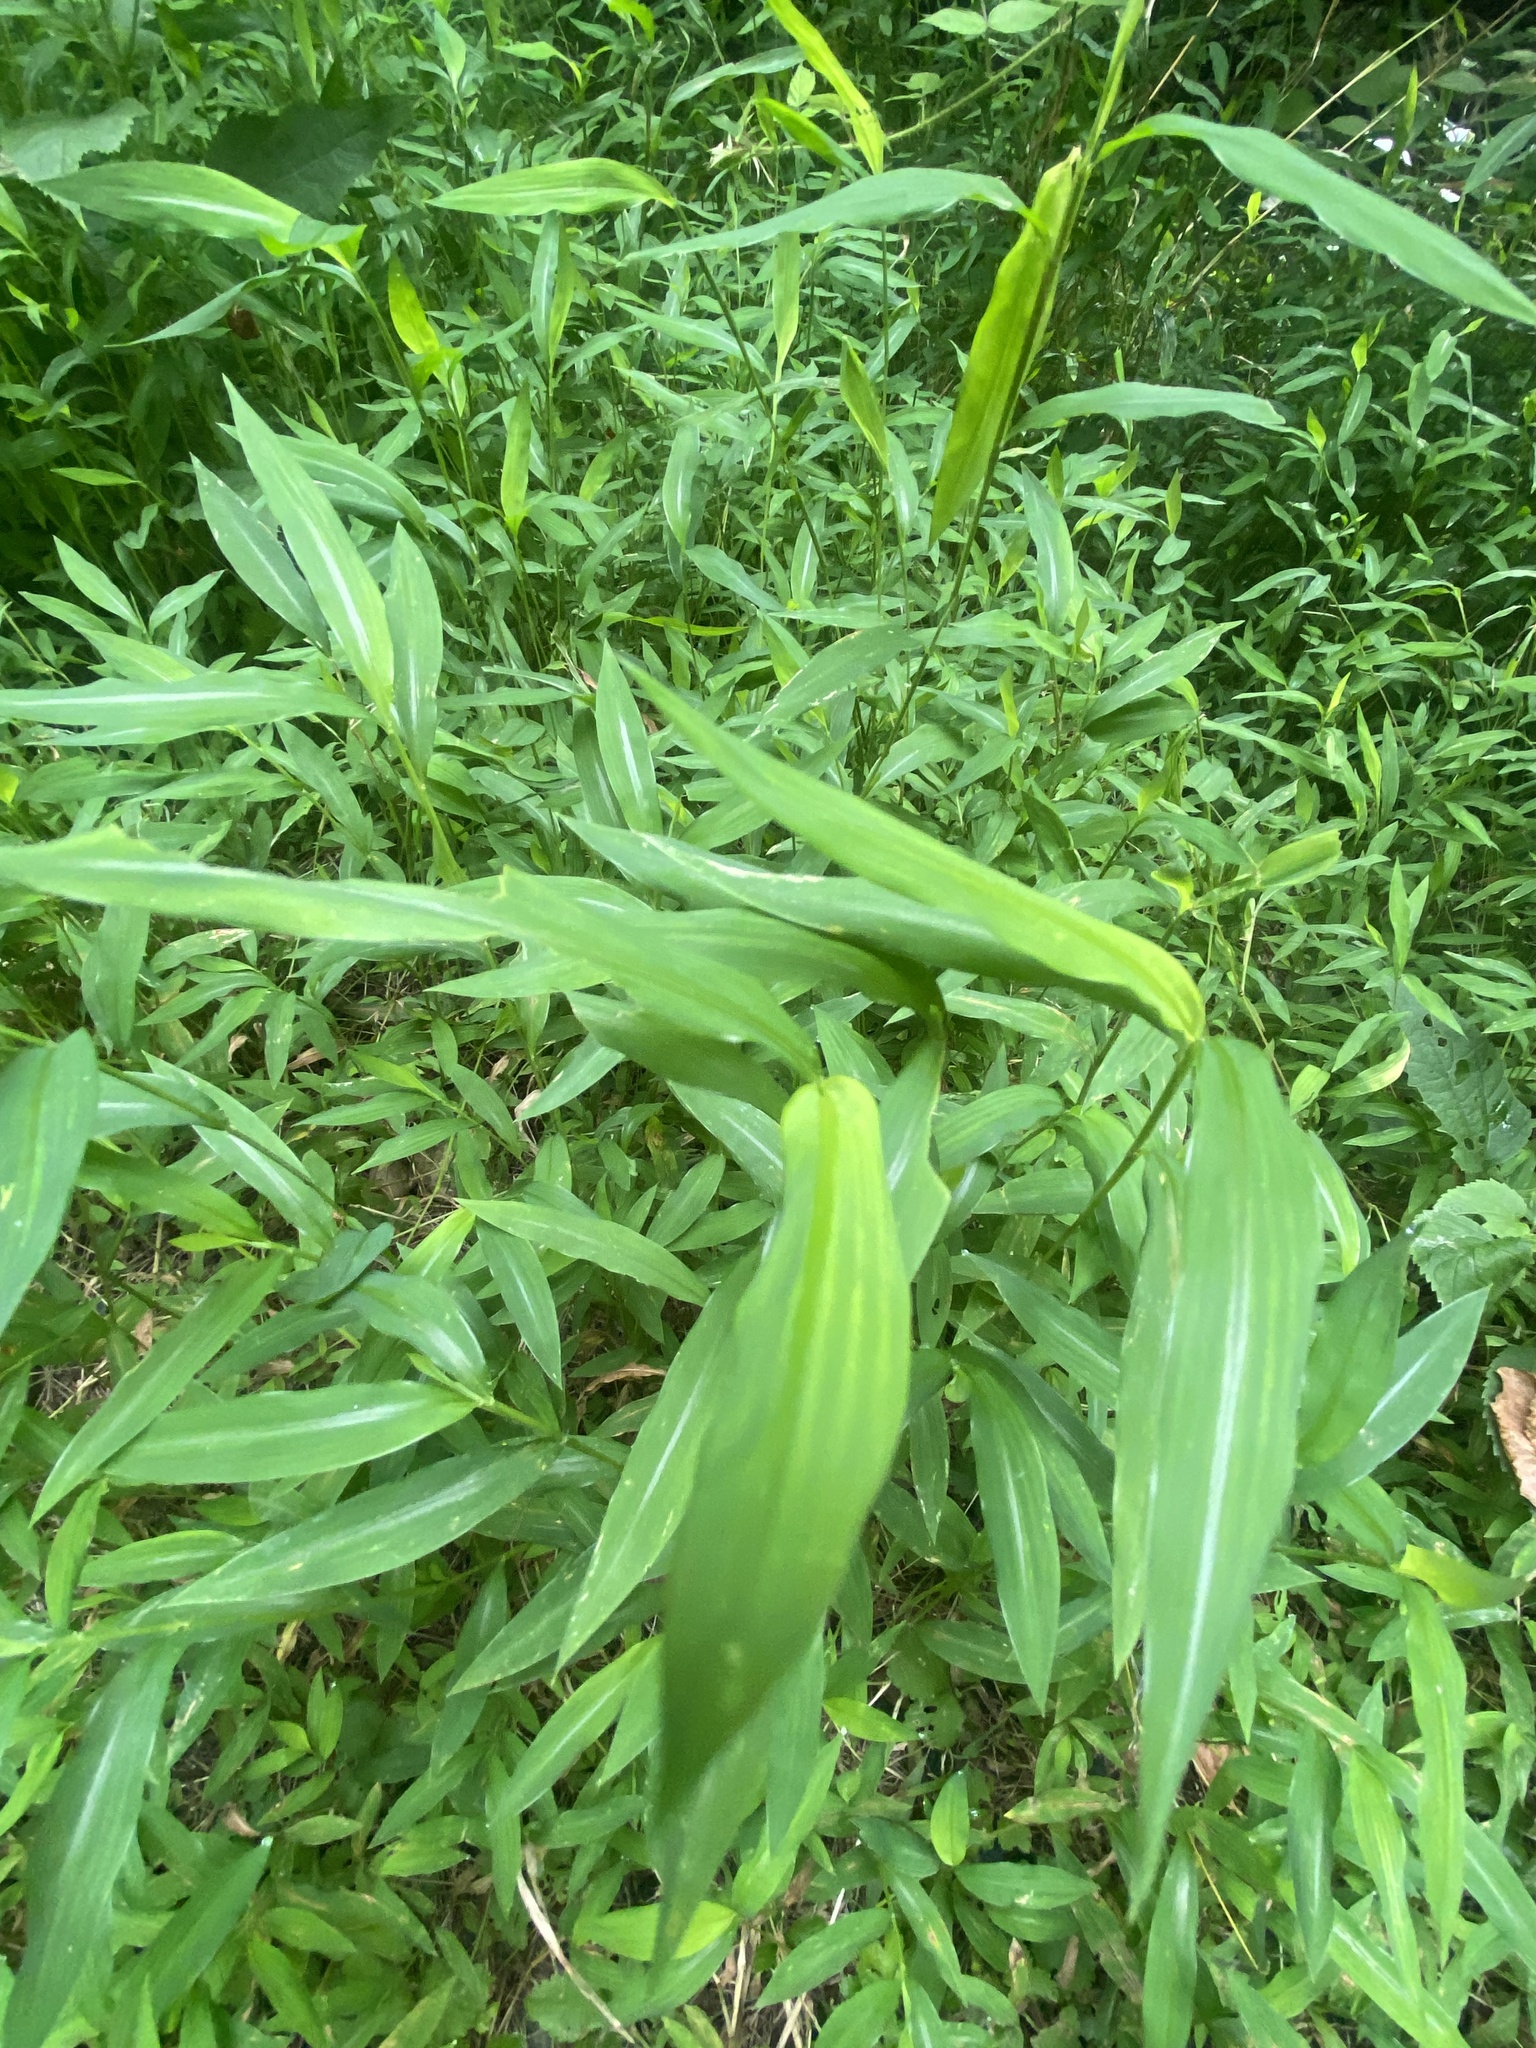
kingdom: Plantae
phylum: Tracheophyta
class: Liliopsida
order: Poales
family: Poaceae
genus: Microstegium
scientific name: Microstegium vimineum
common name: Japanese stiltgrass
